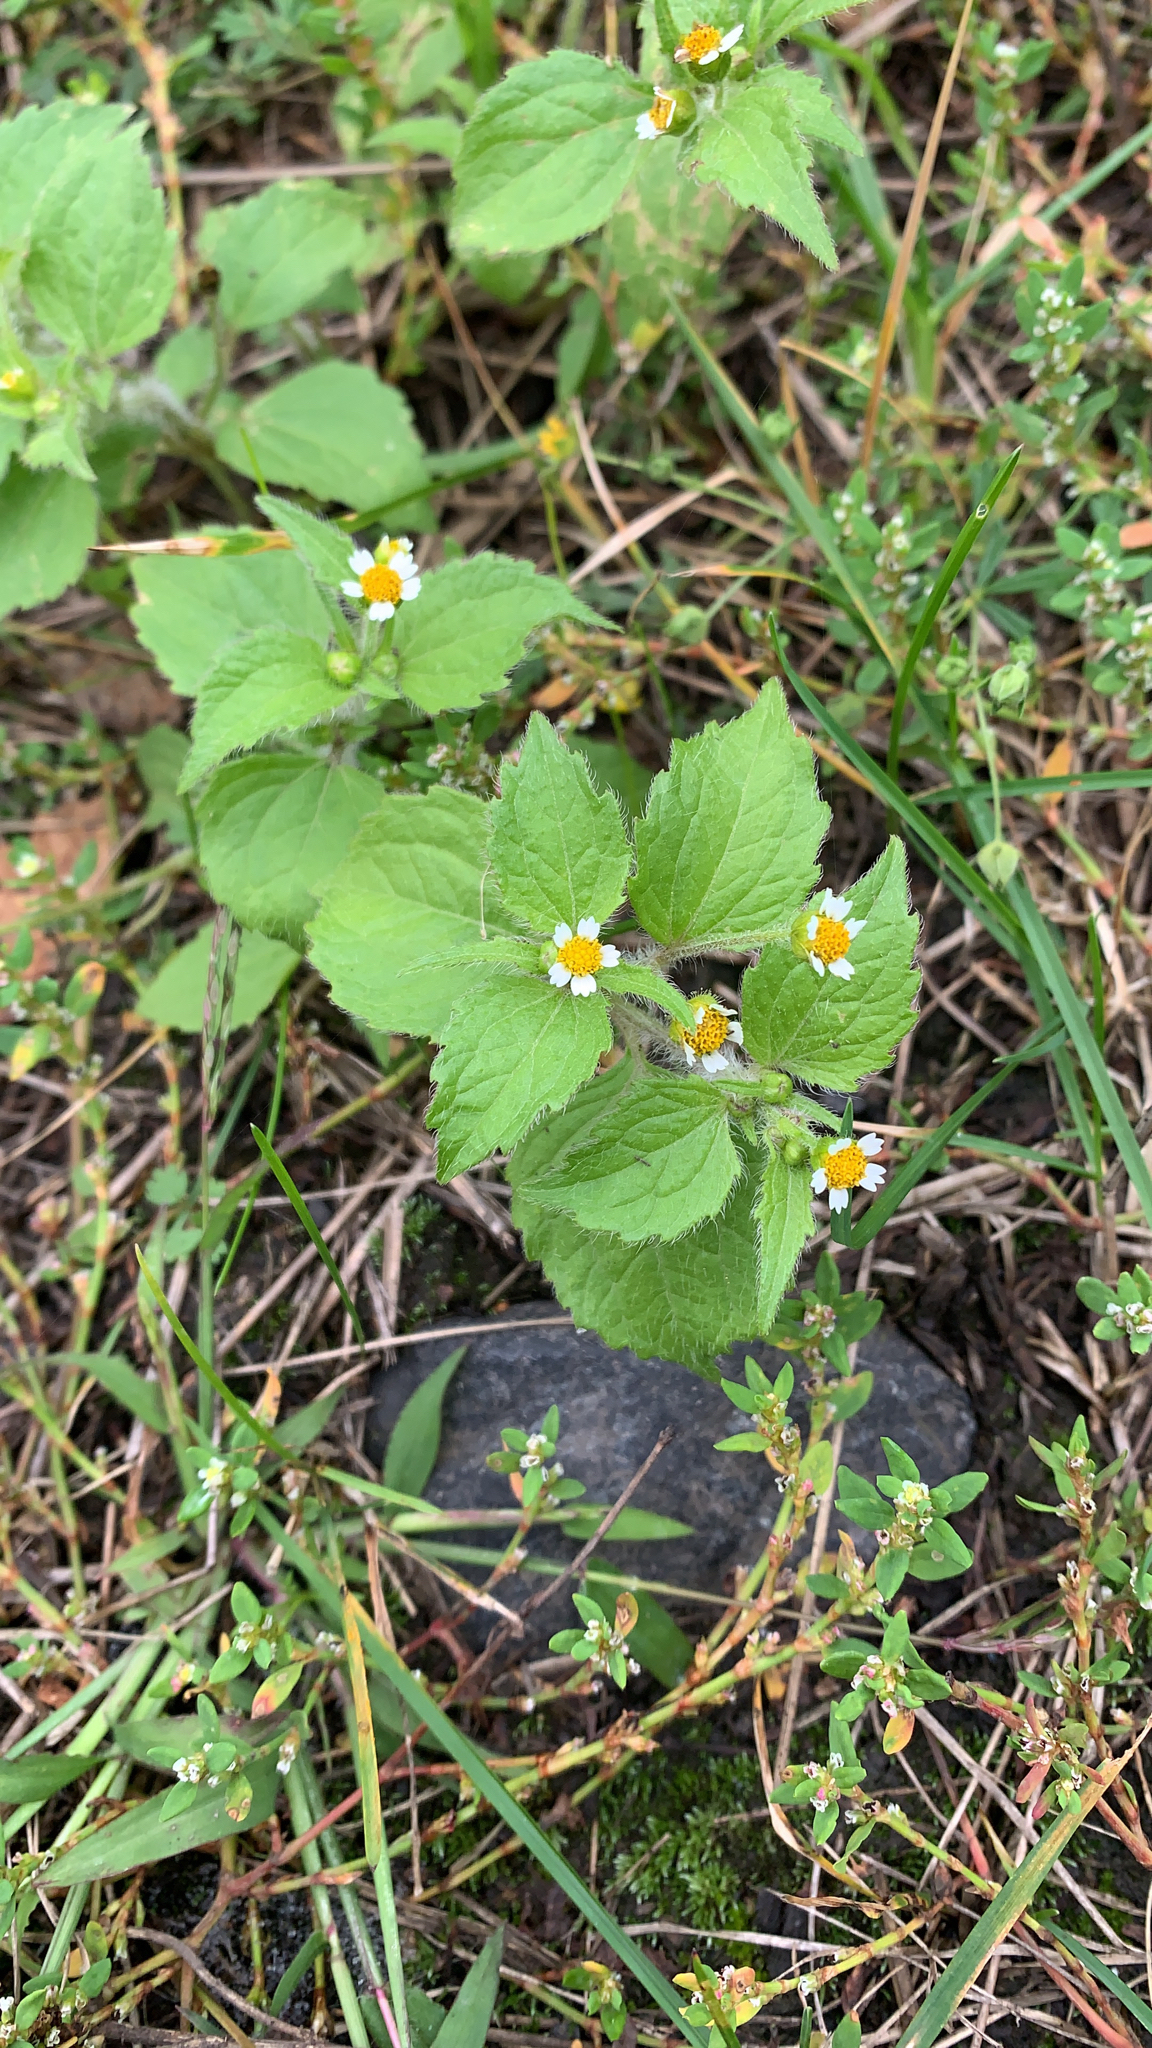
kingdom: Plantae
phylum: Tracheophyta
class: Magnoliopsida
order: Asterales
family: Asteraceae
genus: Galinsoga
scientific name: Galinsoga quadriradiata
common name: Shaggy soldier
